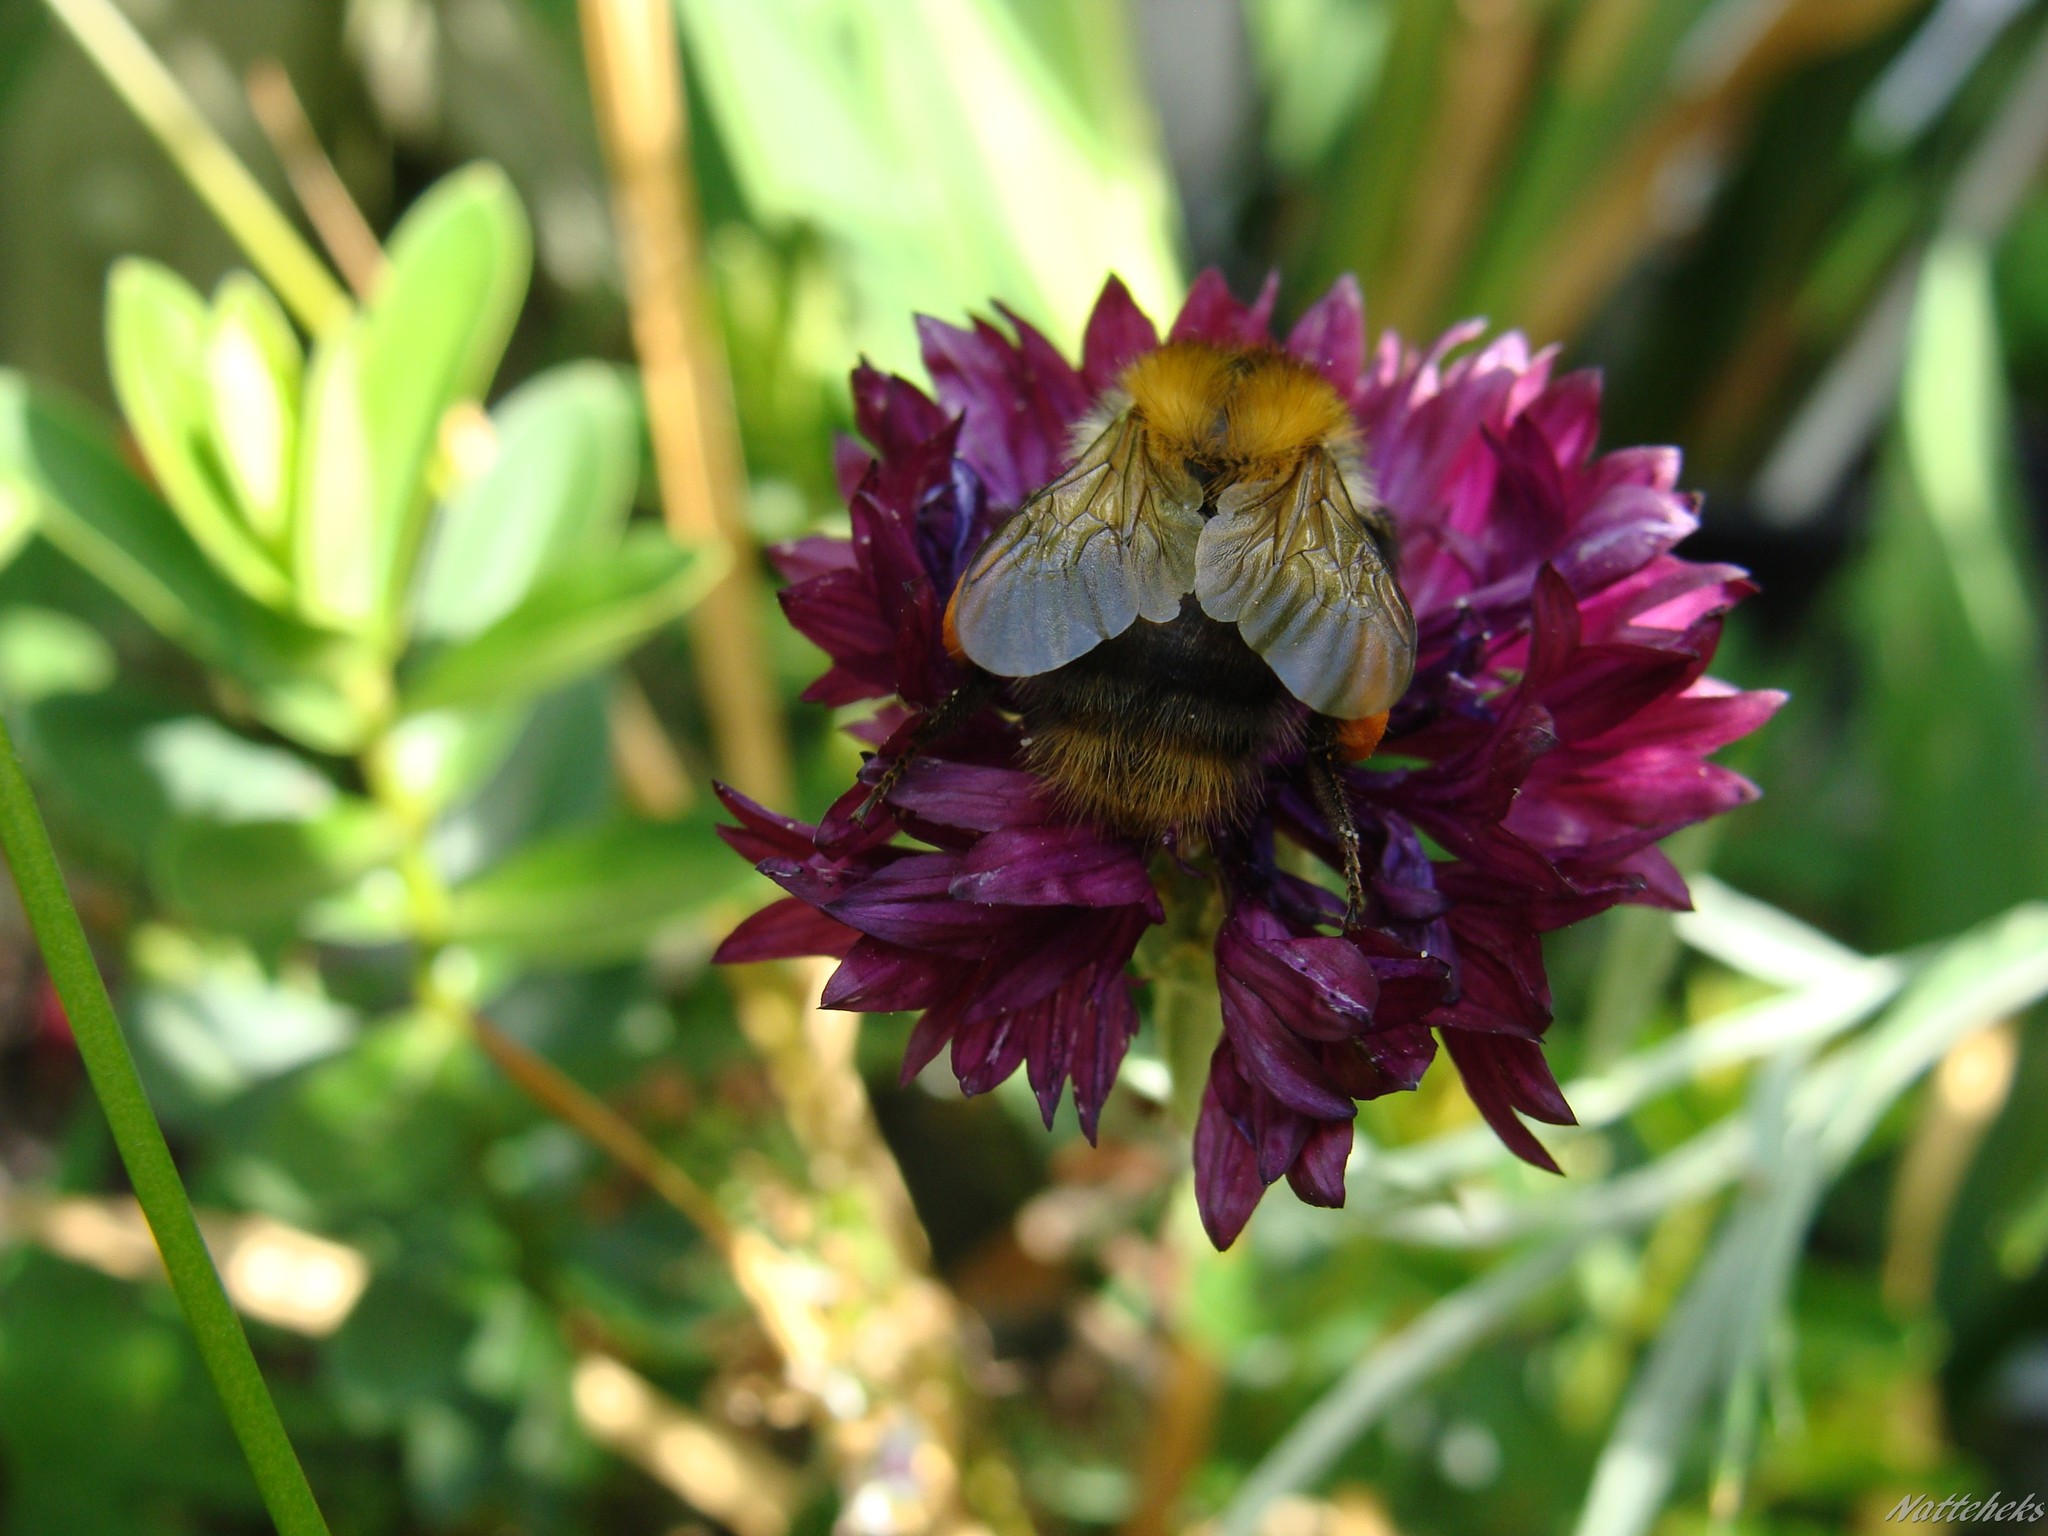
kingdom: Animalia
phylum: Arthropoda
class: Insecta
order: Hymenoptera
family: Apidae
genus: Bombus
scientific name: Bombus pascuorum
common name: Common carder bee
